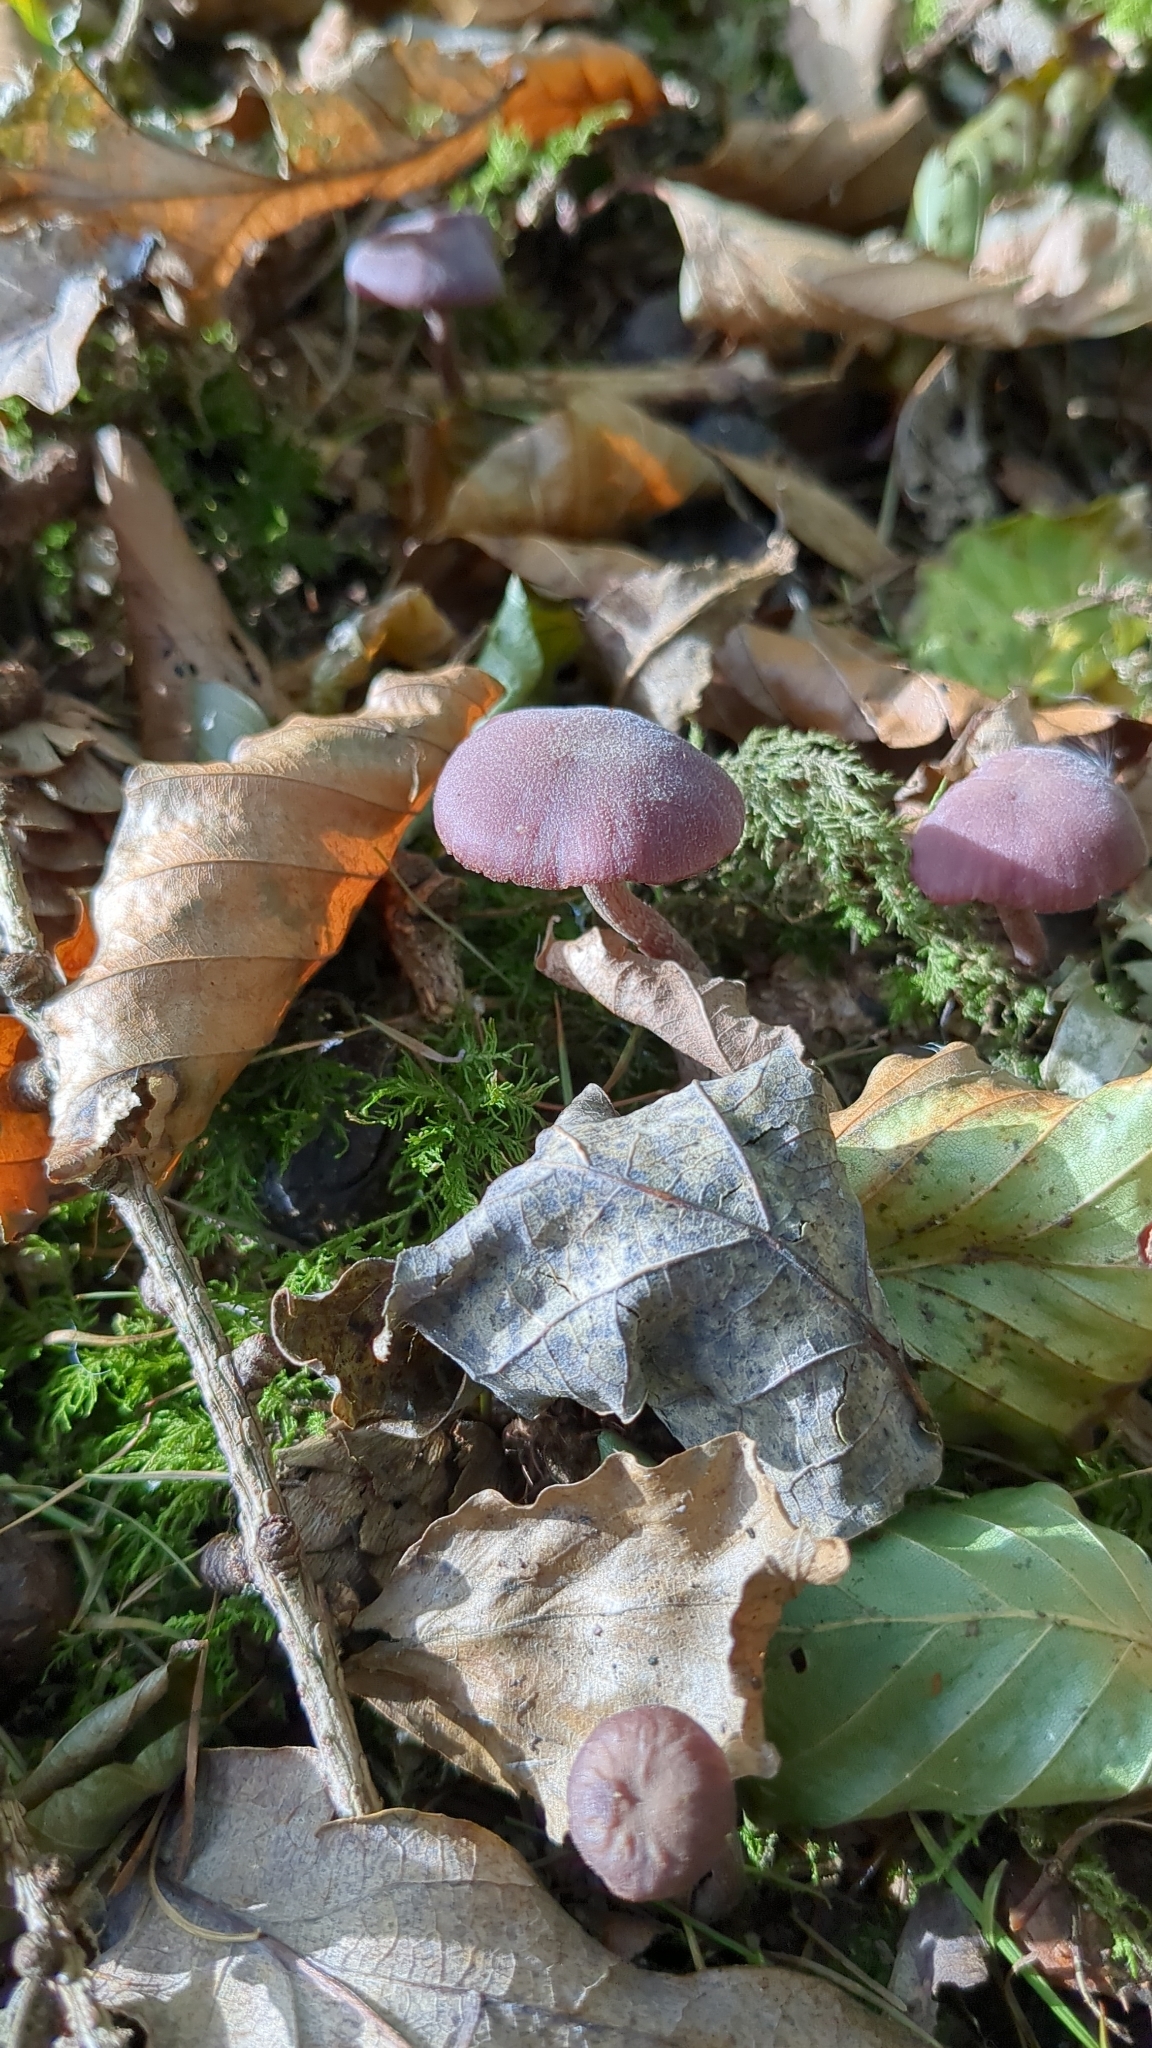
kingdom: Fungi
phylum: Basidiomycota
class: Agaricomycetes
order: Agaricales
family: Hydnangiaceae
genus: Laccaria
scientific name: Laccaria amethystina
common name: Amethyst deceiver
